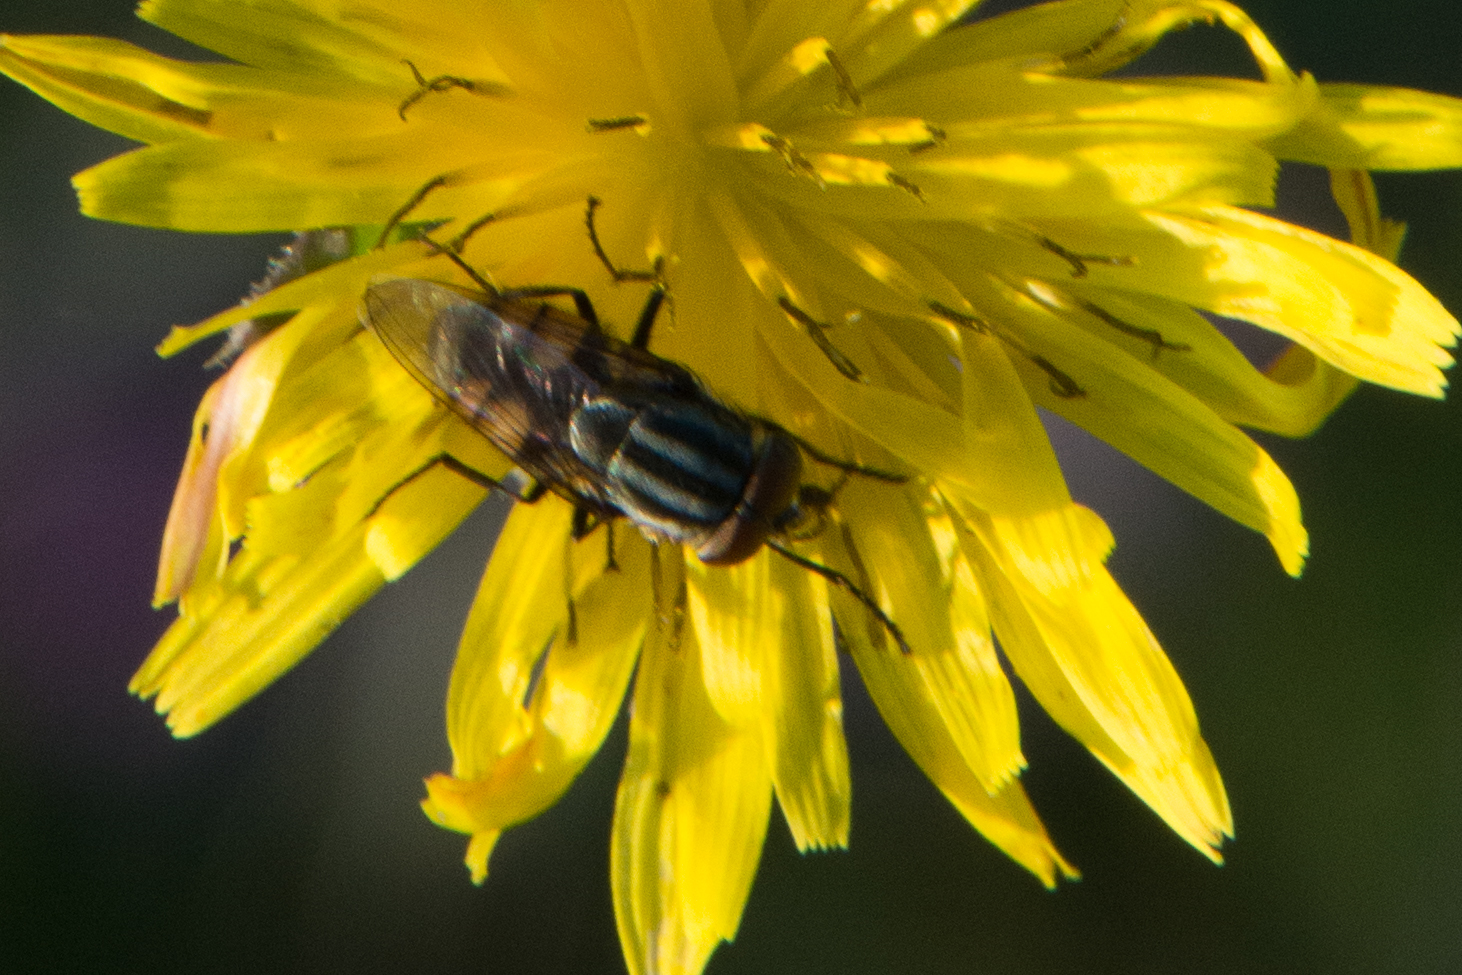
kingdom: Animalia
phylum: Arthropoda
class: Insecta
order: Diptera
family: Calliphoridae
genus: Stomorhina
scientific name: Stomorhina lunata
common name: Locust blowfly
